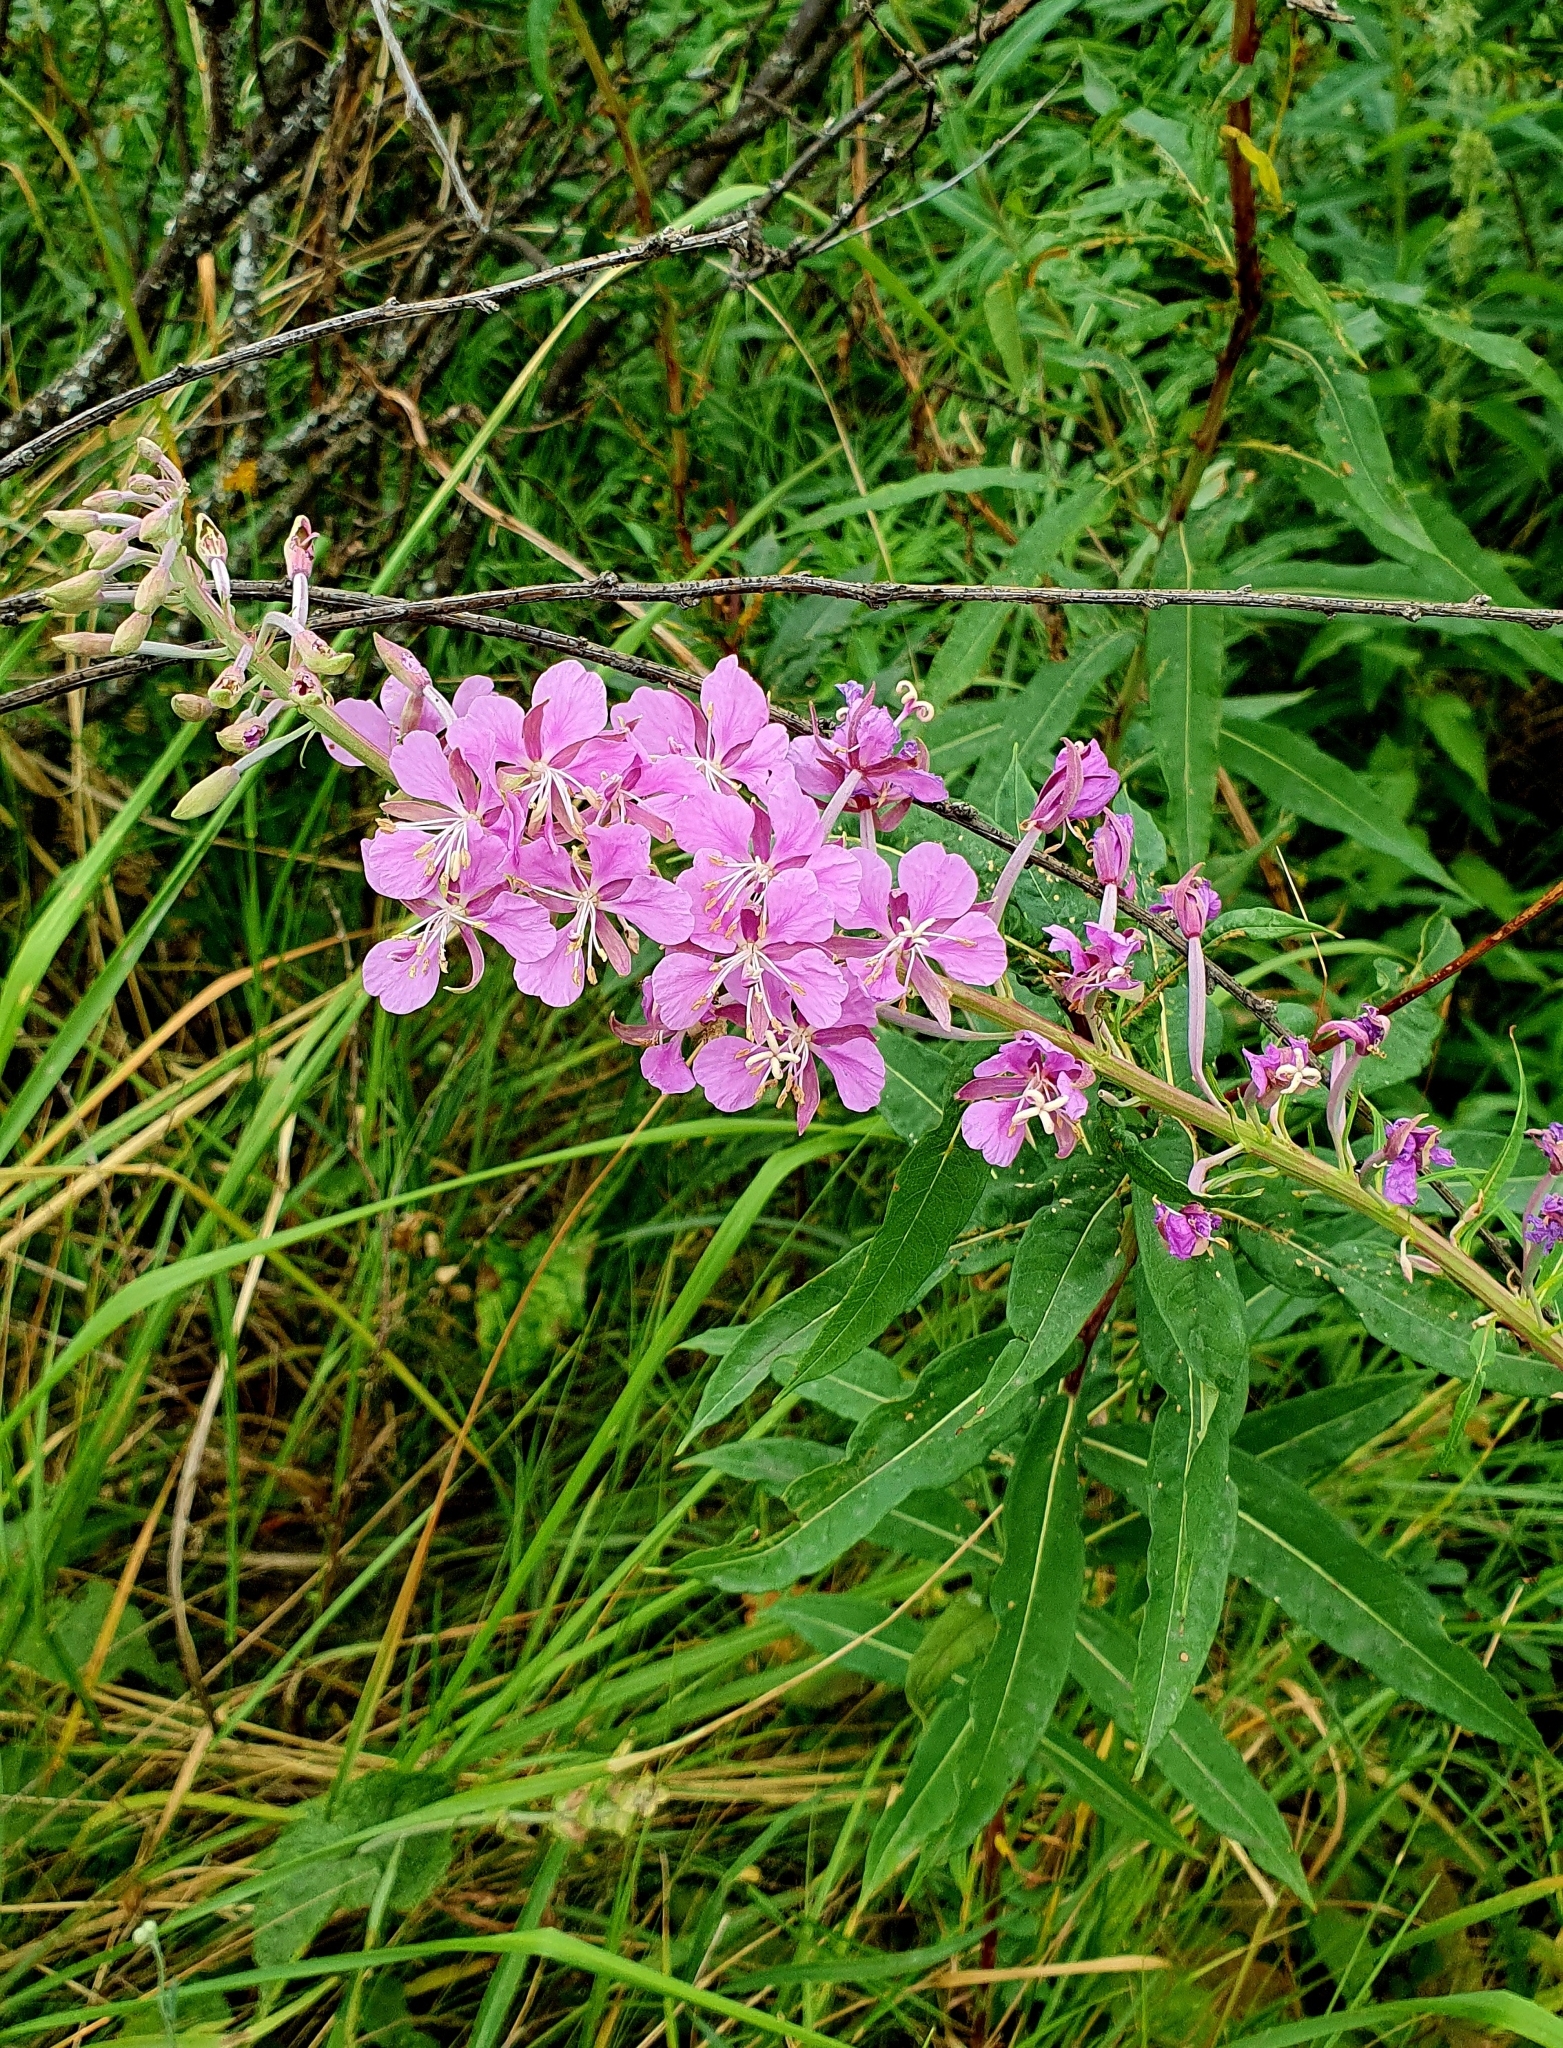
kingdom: Plantae
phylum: Tracheophyta
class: Magnoliopsida
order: Myrtales
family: Onagraceae
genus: Chamaenerion
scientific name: Chamaenerion angustifolium
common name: Fireweed
